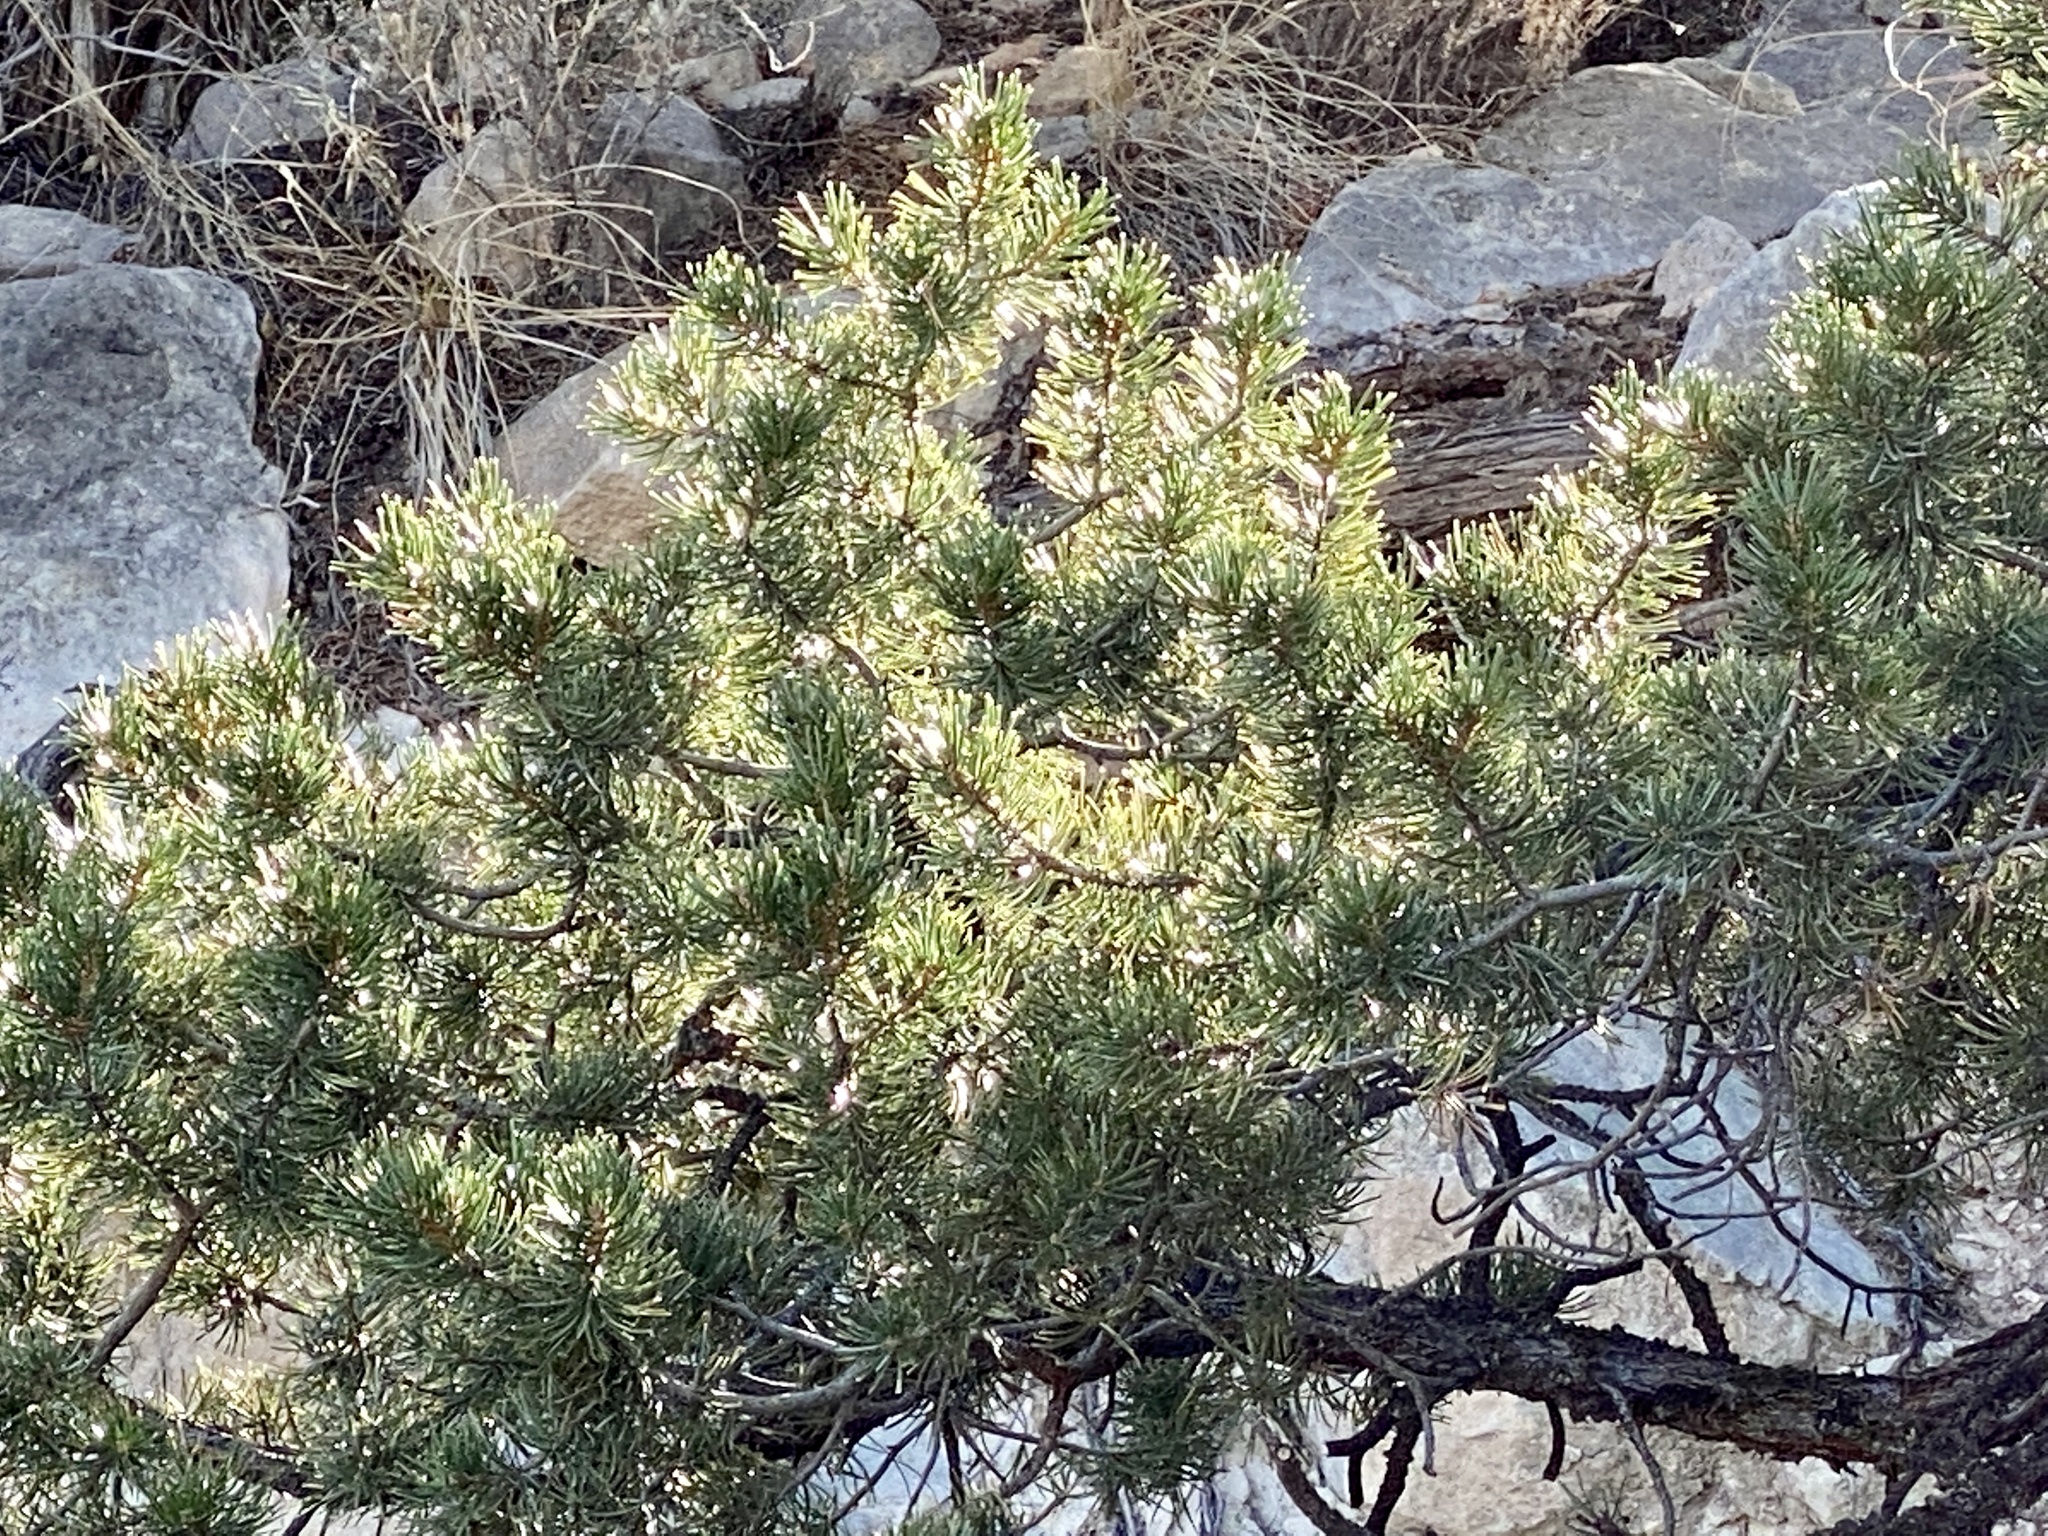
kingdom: Plantae
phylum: Tracheophyta
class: Pinopsida
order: Pinales
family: Pinaceae
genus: Pinus
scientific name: Pinus edulis
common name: Colorado pinyon
